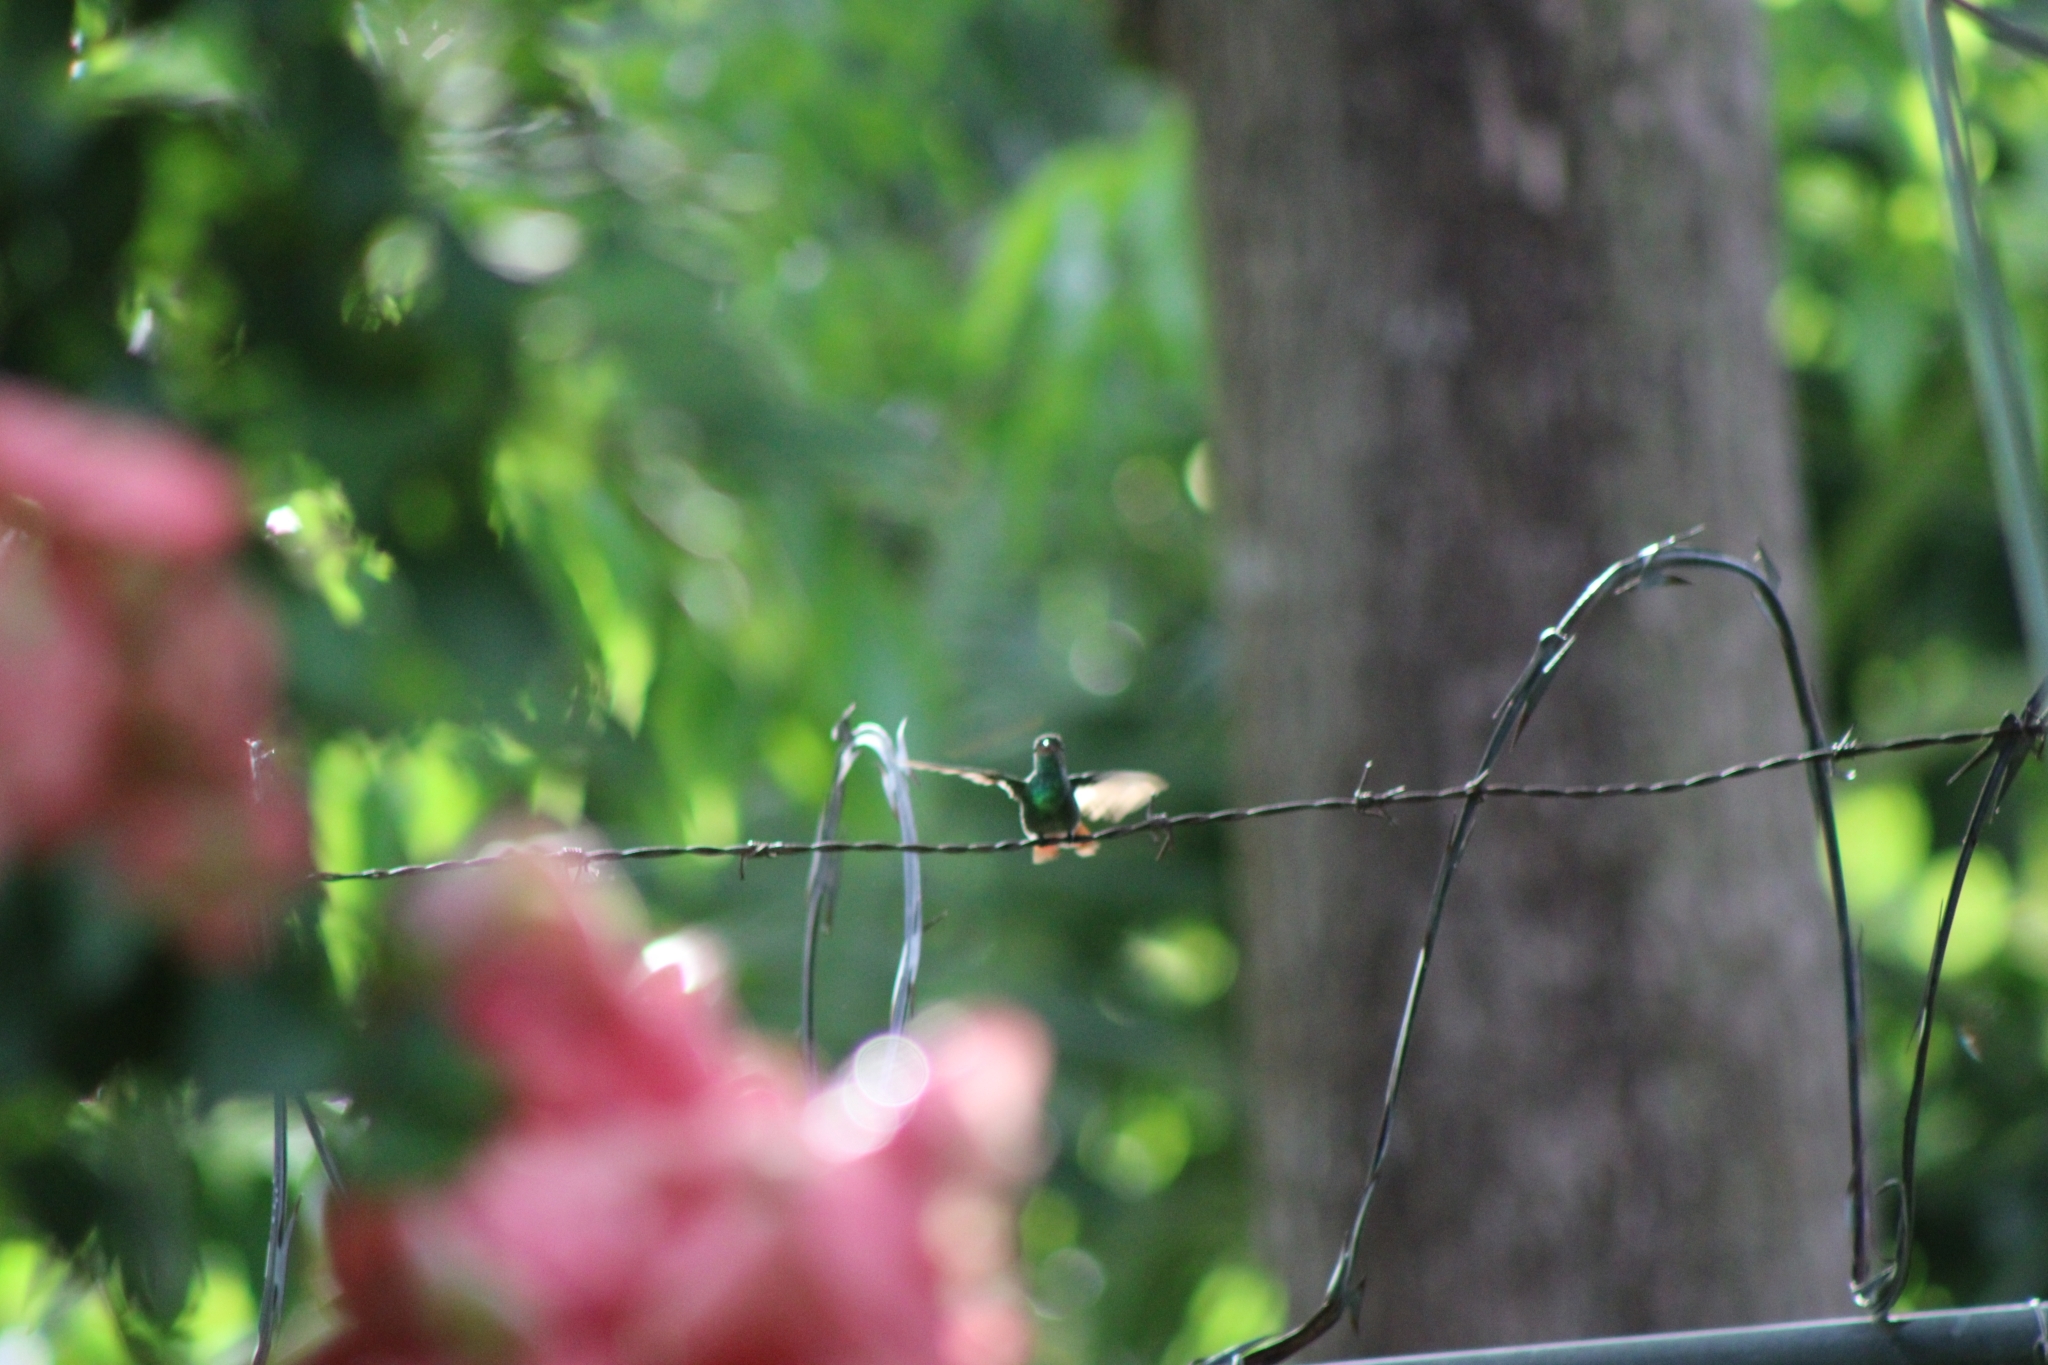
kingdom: Animalia
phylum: Chordata
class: Aves
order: Apodiformes
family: Trochilidae
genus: Amazilia
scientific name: Amazilia tzacatl
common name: Rufous-tailed hummingbird
